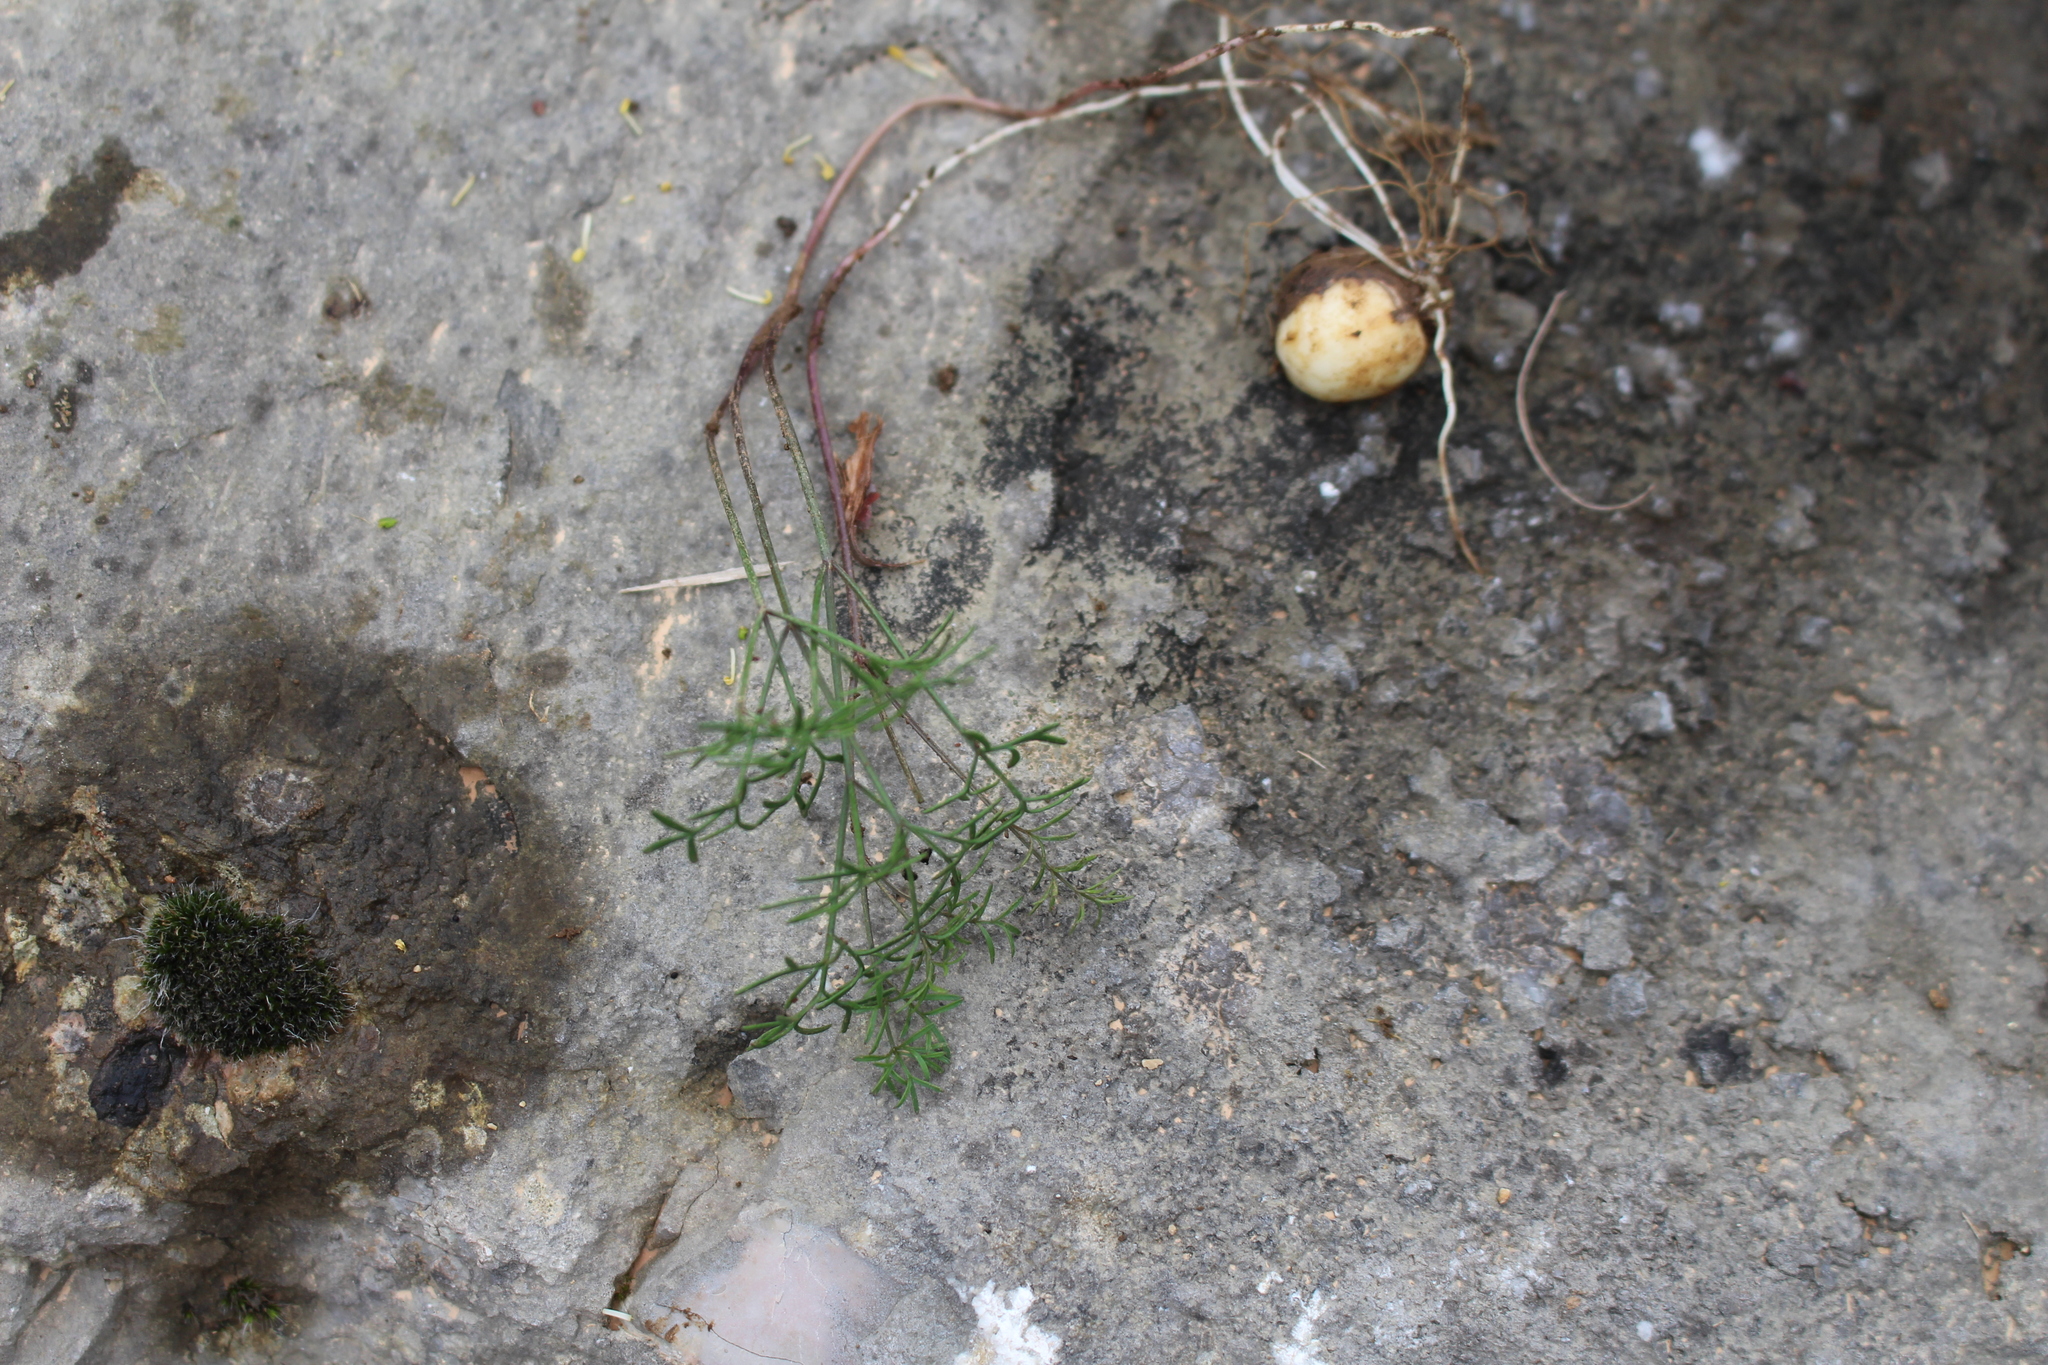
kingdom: Plantae
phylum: Tracheophyta
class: Magnoliopsida
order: Apiales
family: Apiaceae
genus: Bunium
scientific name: Bunium bulbocastanum
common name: Great pignut
